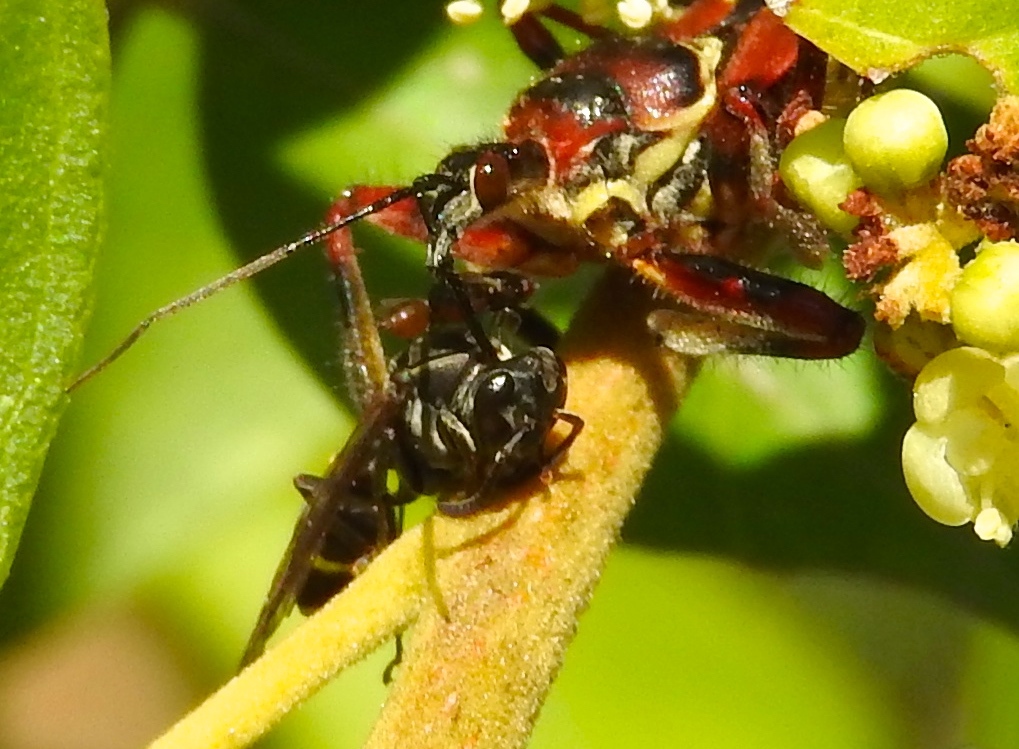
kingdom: Animalia
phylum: Arthropoda
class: Insecta
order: Hemiptera
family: Reduviidae
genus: Apiomerus
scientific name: Apiomerus flaviventris
